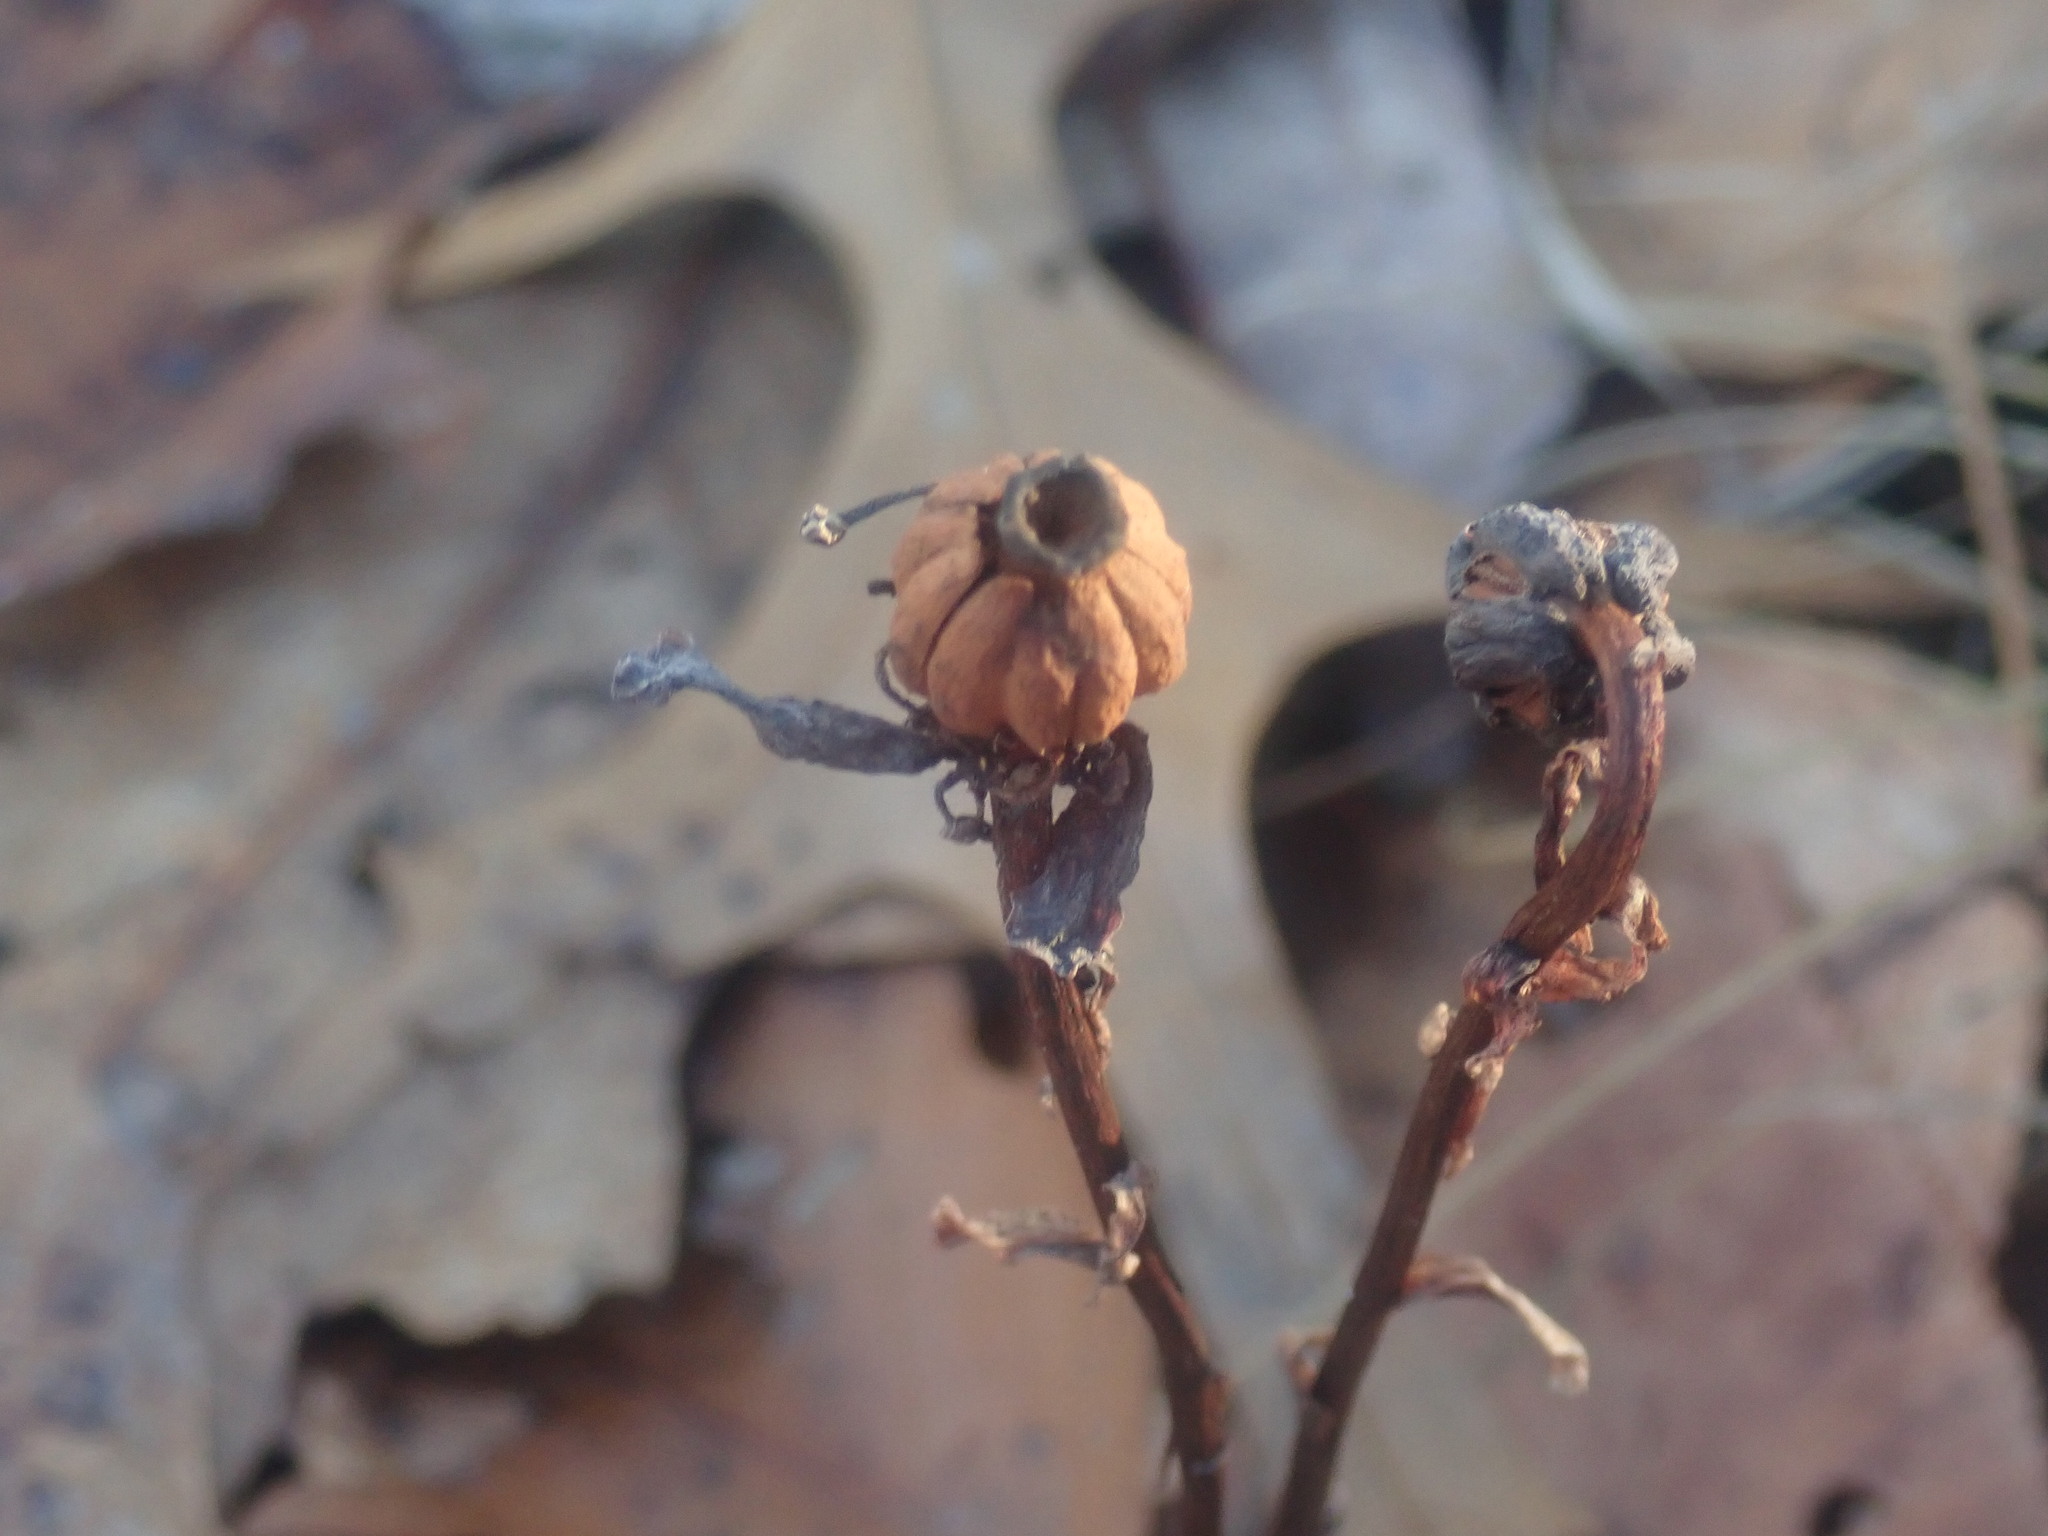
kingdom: Plantae
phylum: Tracheophyta
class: Magnoliopsida
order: Ericales
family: Ericaceae
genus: Monotropa
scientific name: Monotropa uniflora
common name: Convulsion root
